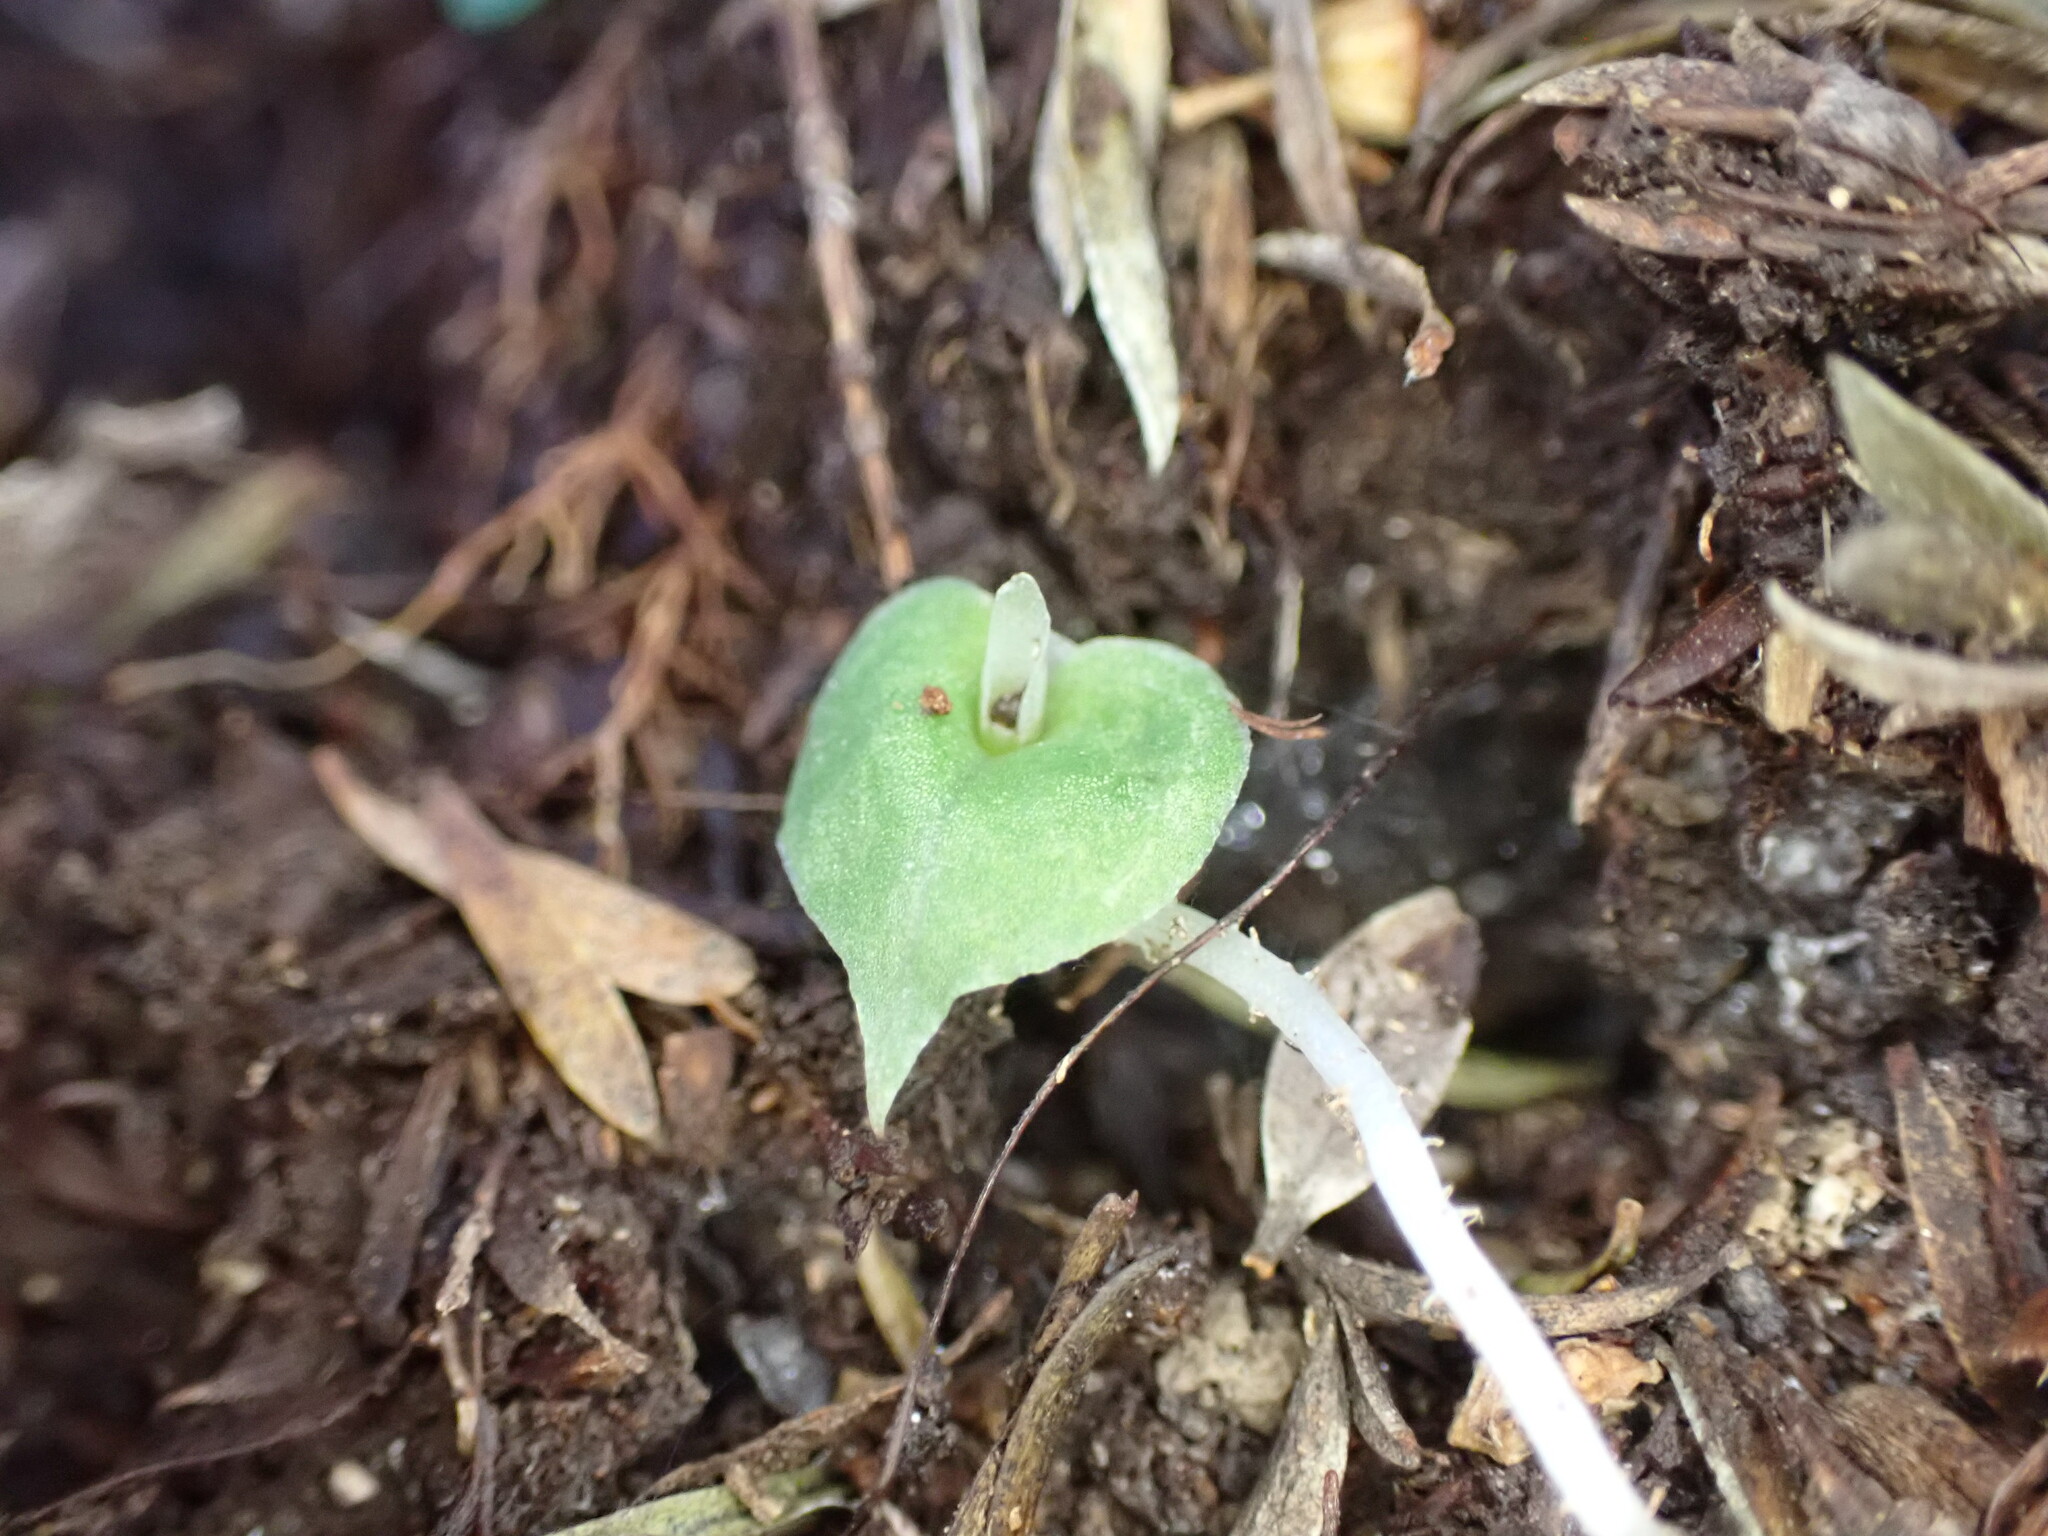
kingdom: Plantae
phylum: Tracheophyta
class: Liliopsida
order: Asparagales
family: Orchidaceae
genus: Corybas
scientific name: Corybas cheesemanii
